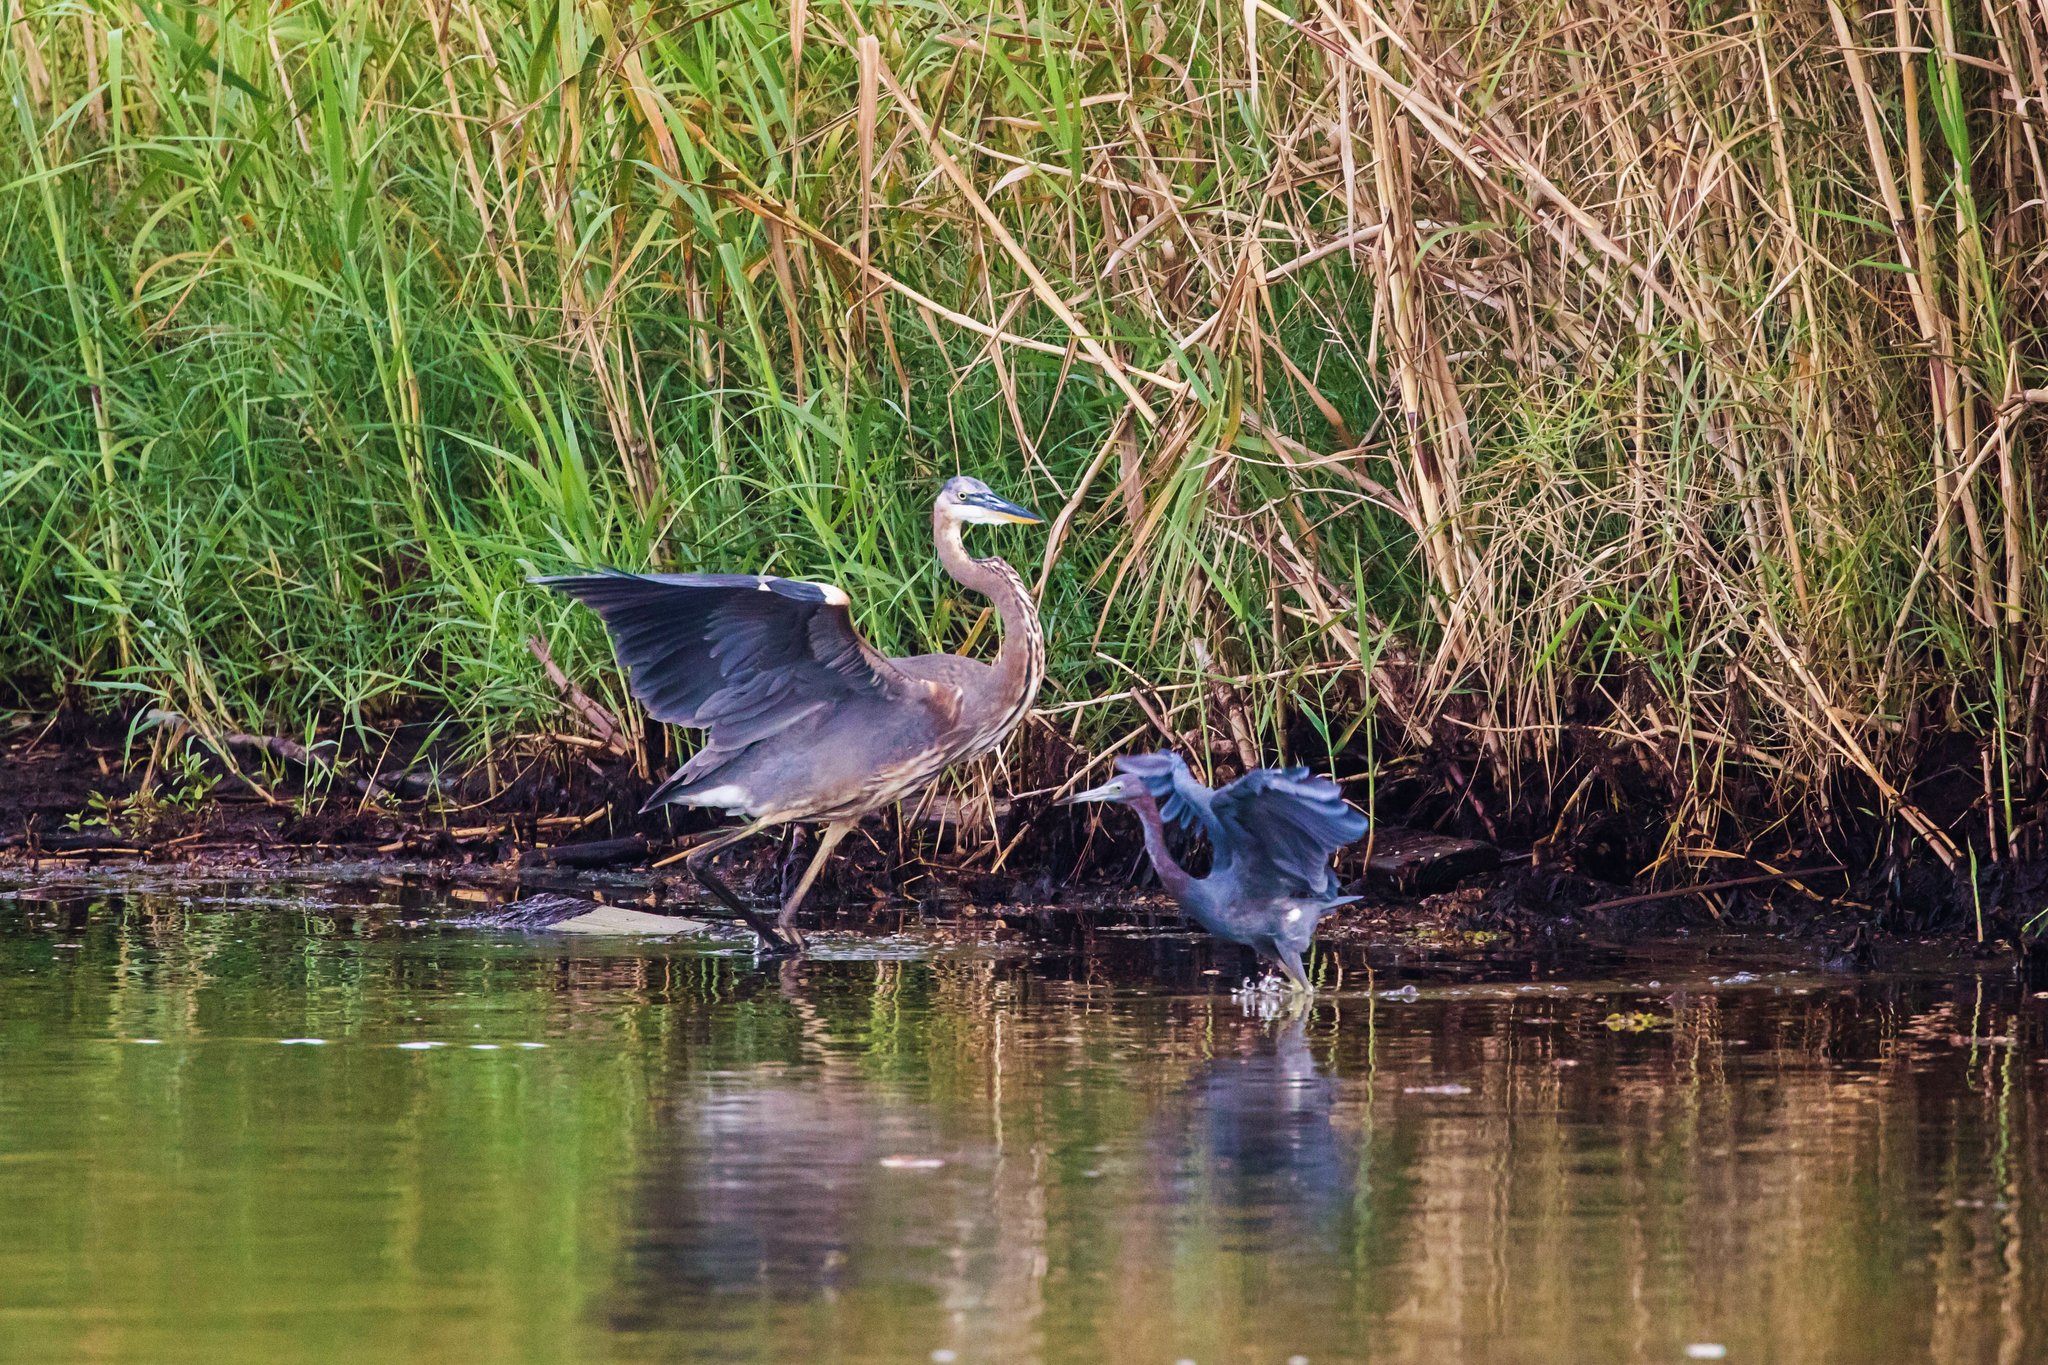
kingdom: Animalia
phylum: Chordata
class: Aves
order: Pelecaniformes
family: Ardeidae
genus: Ardea
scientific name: Ardea herodias
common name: Great blue heron
